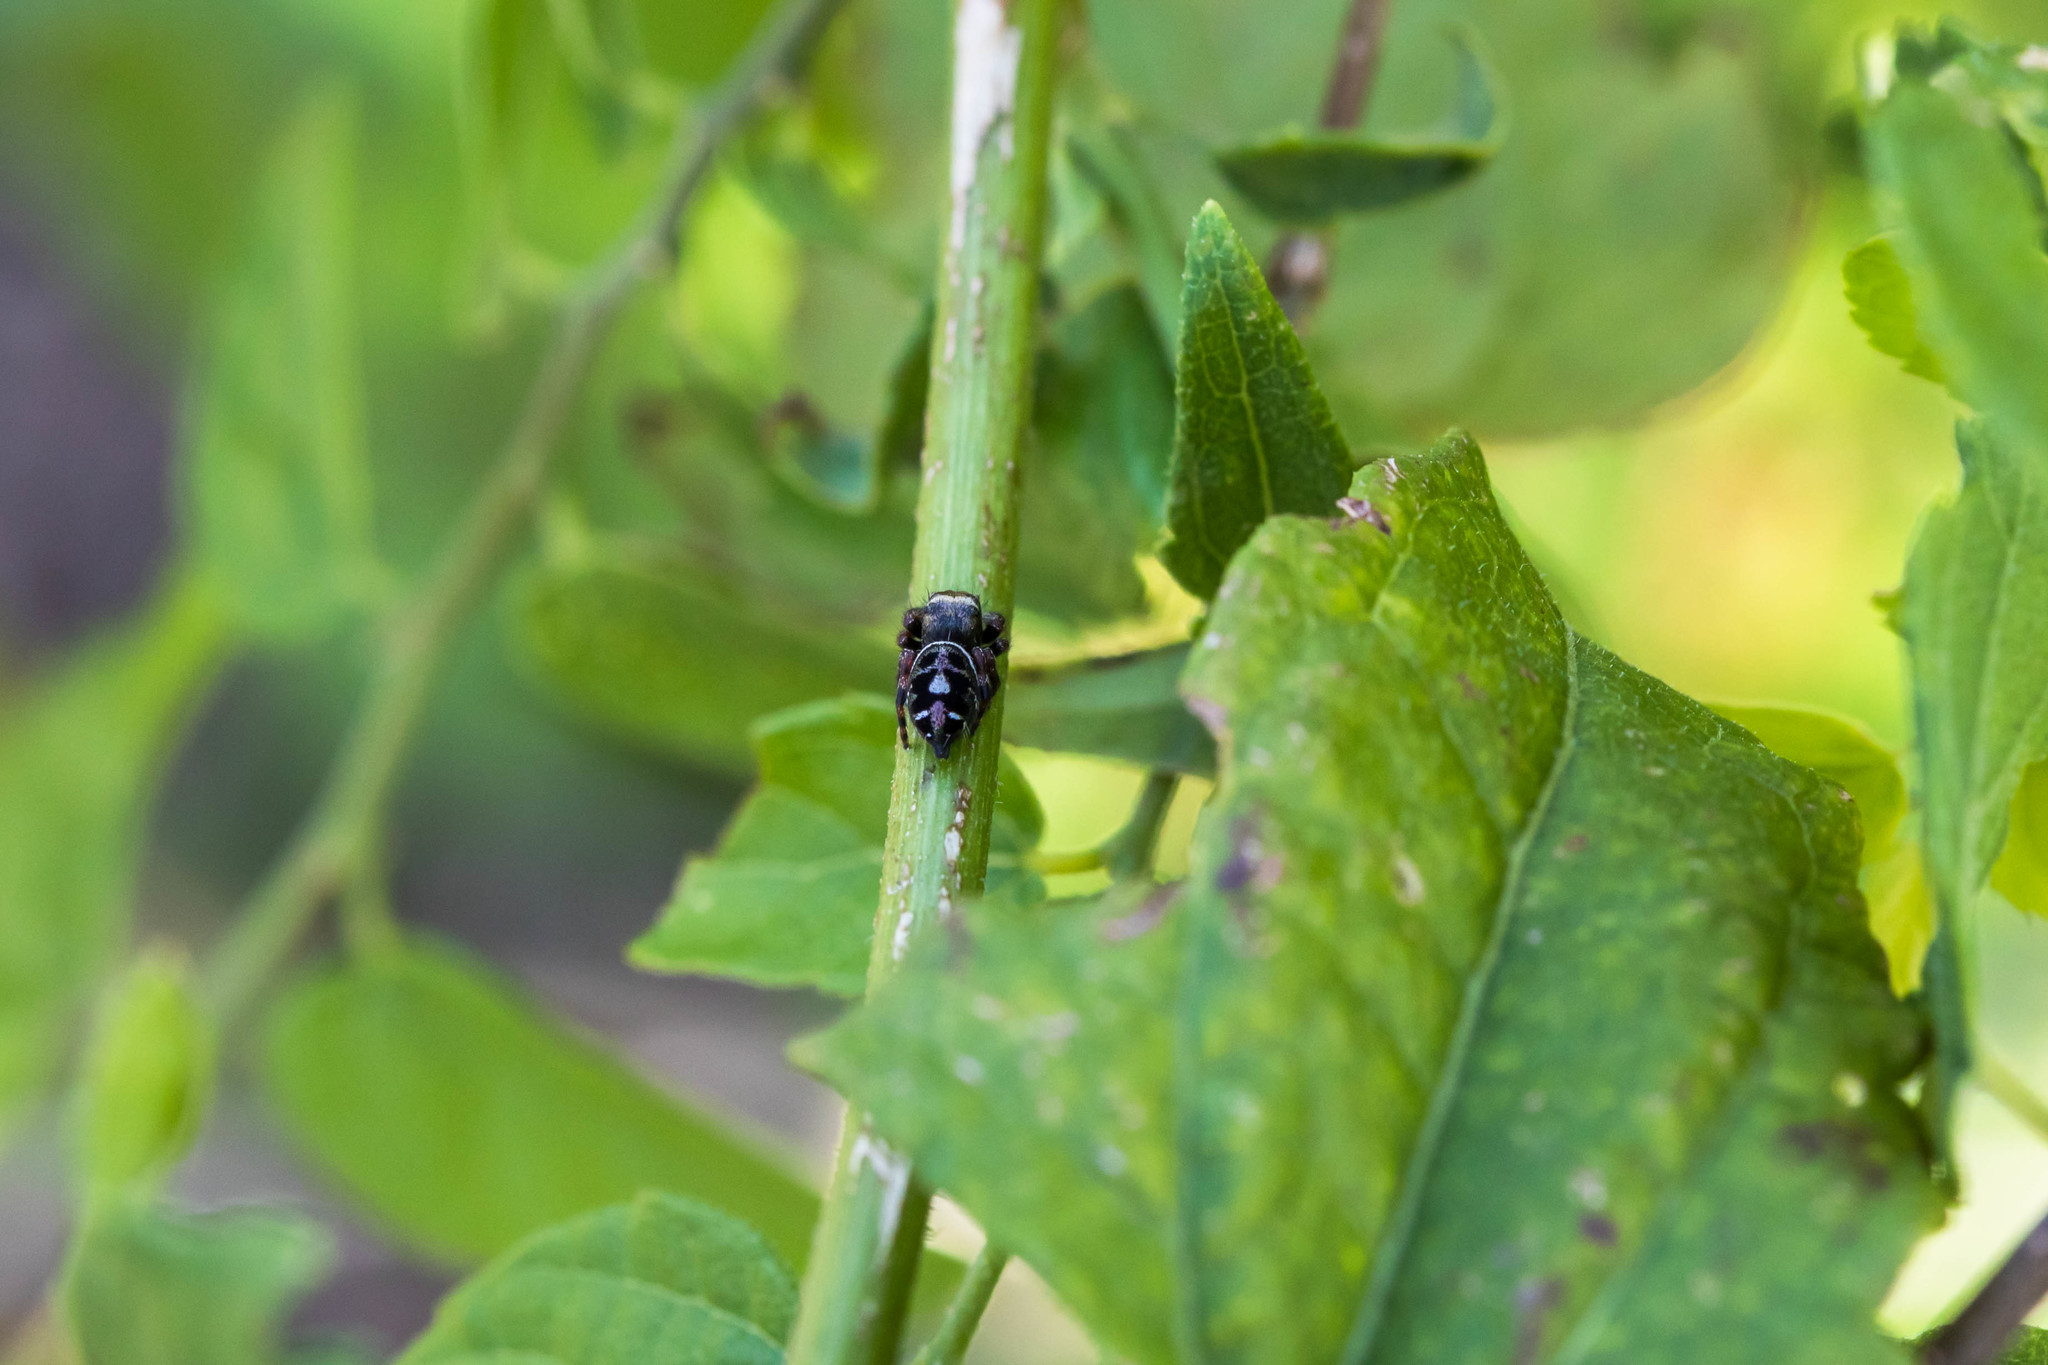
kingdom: Animalia
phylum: Arthropoda
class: Arachnida
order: Araneae
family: Salticidae
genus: Phidippus
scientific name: Phidippus audax
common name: Bold jumper
